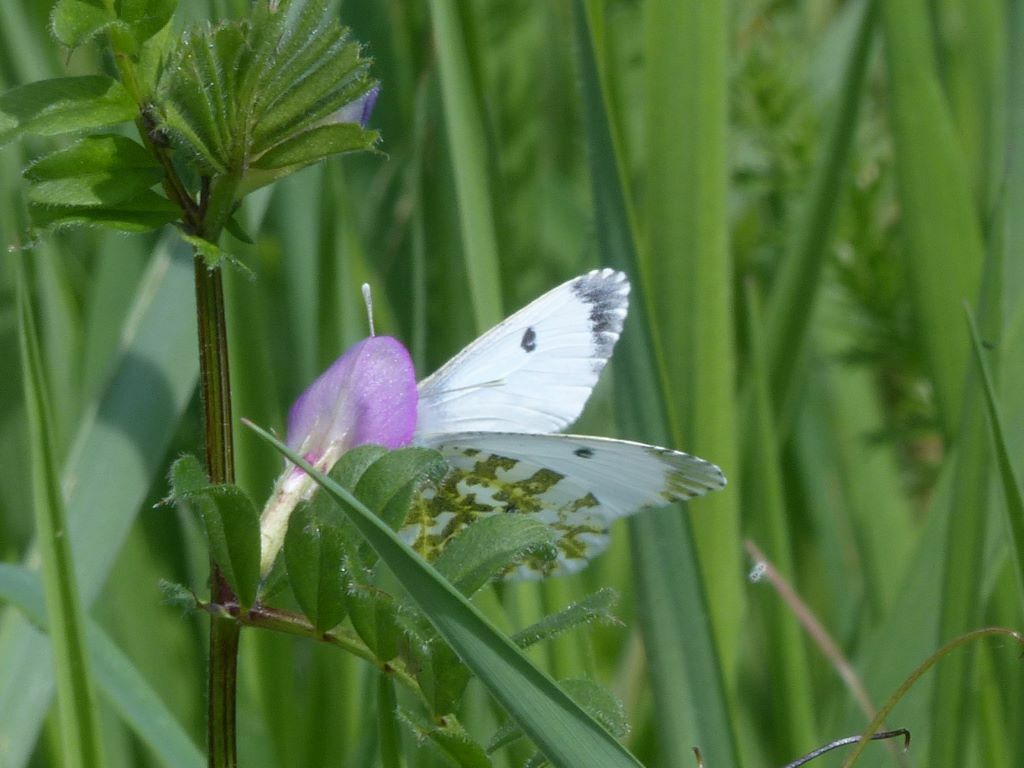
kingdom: Animalia
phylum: Arthropoda
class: Insecta
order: Lepidoptera
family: Pieridae
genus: Anthocharis
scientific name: Anthocharis cardamines
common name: Orange-tip
